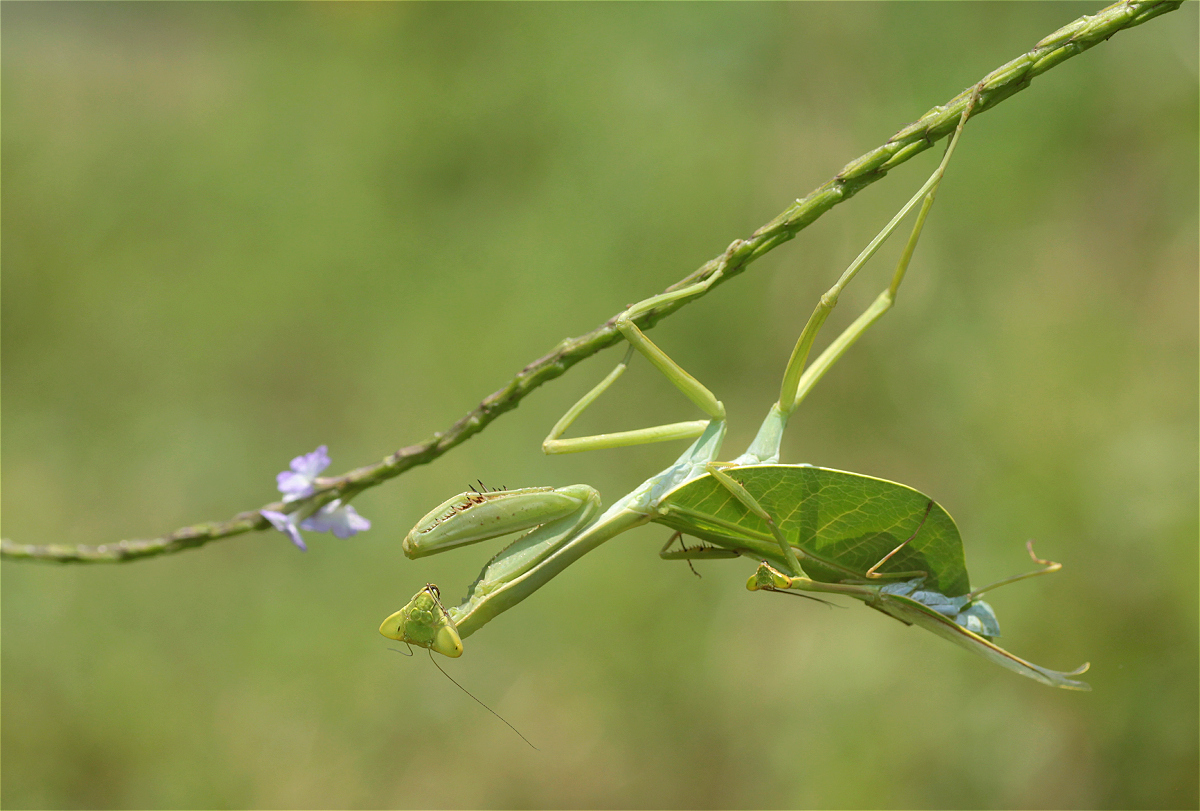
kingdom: Animalia
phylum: Arthropoda
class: Insecta
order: Mantodea
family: Mantidae
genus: Pseudoxyops
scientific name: Pseudoxyops perpulchra
